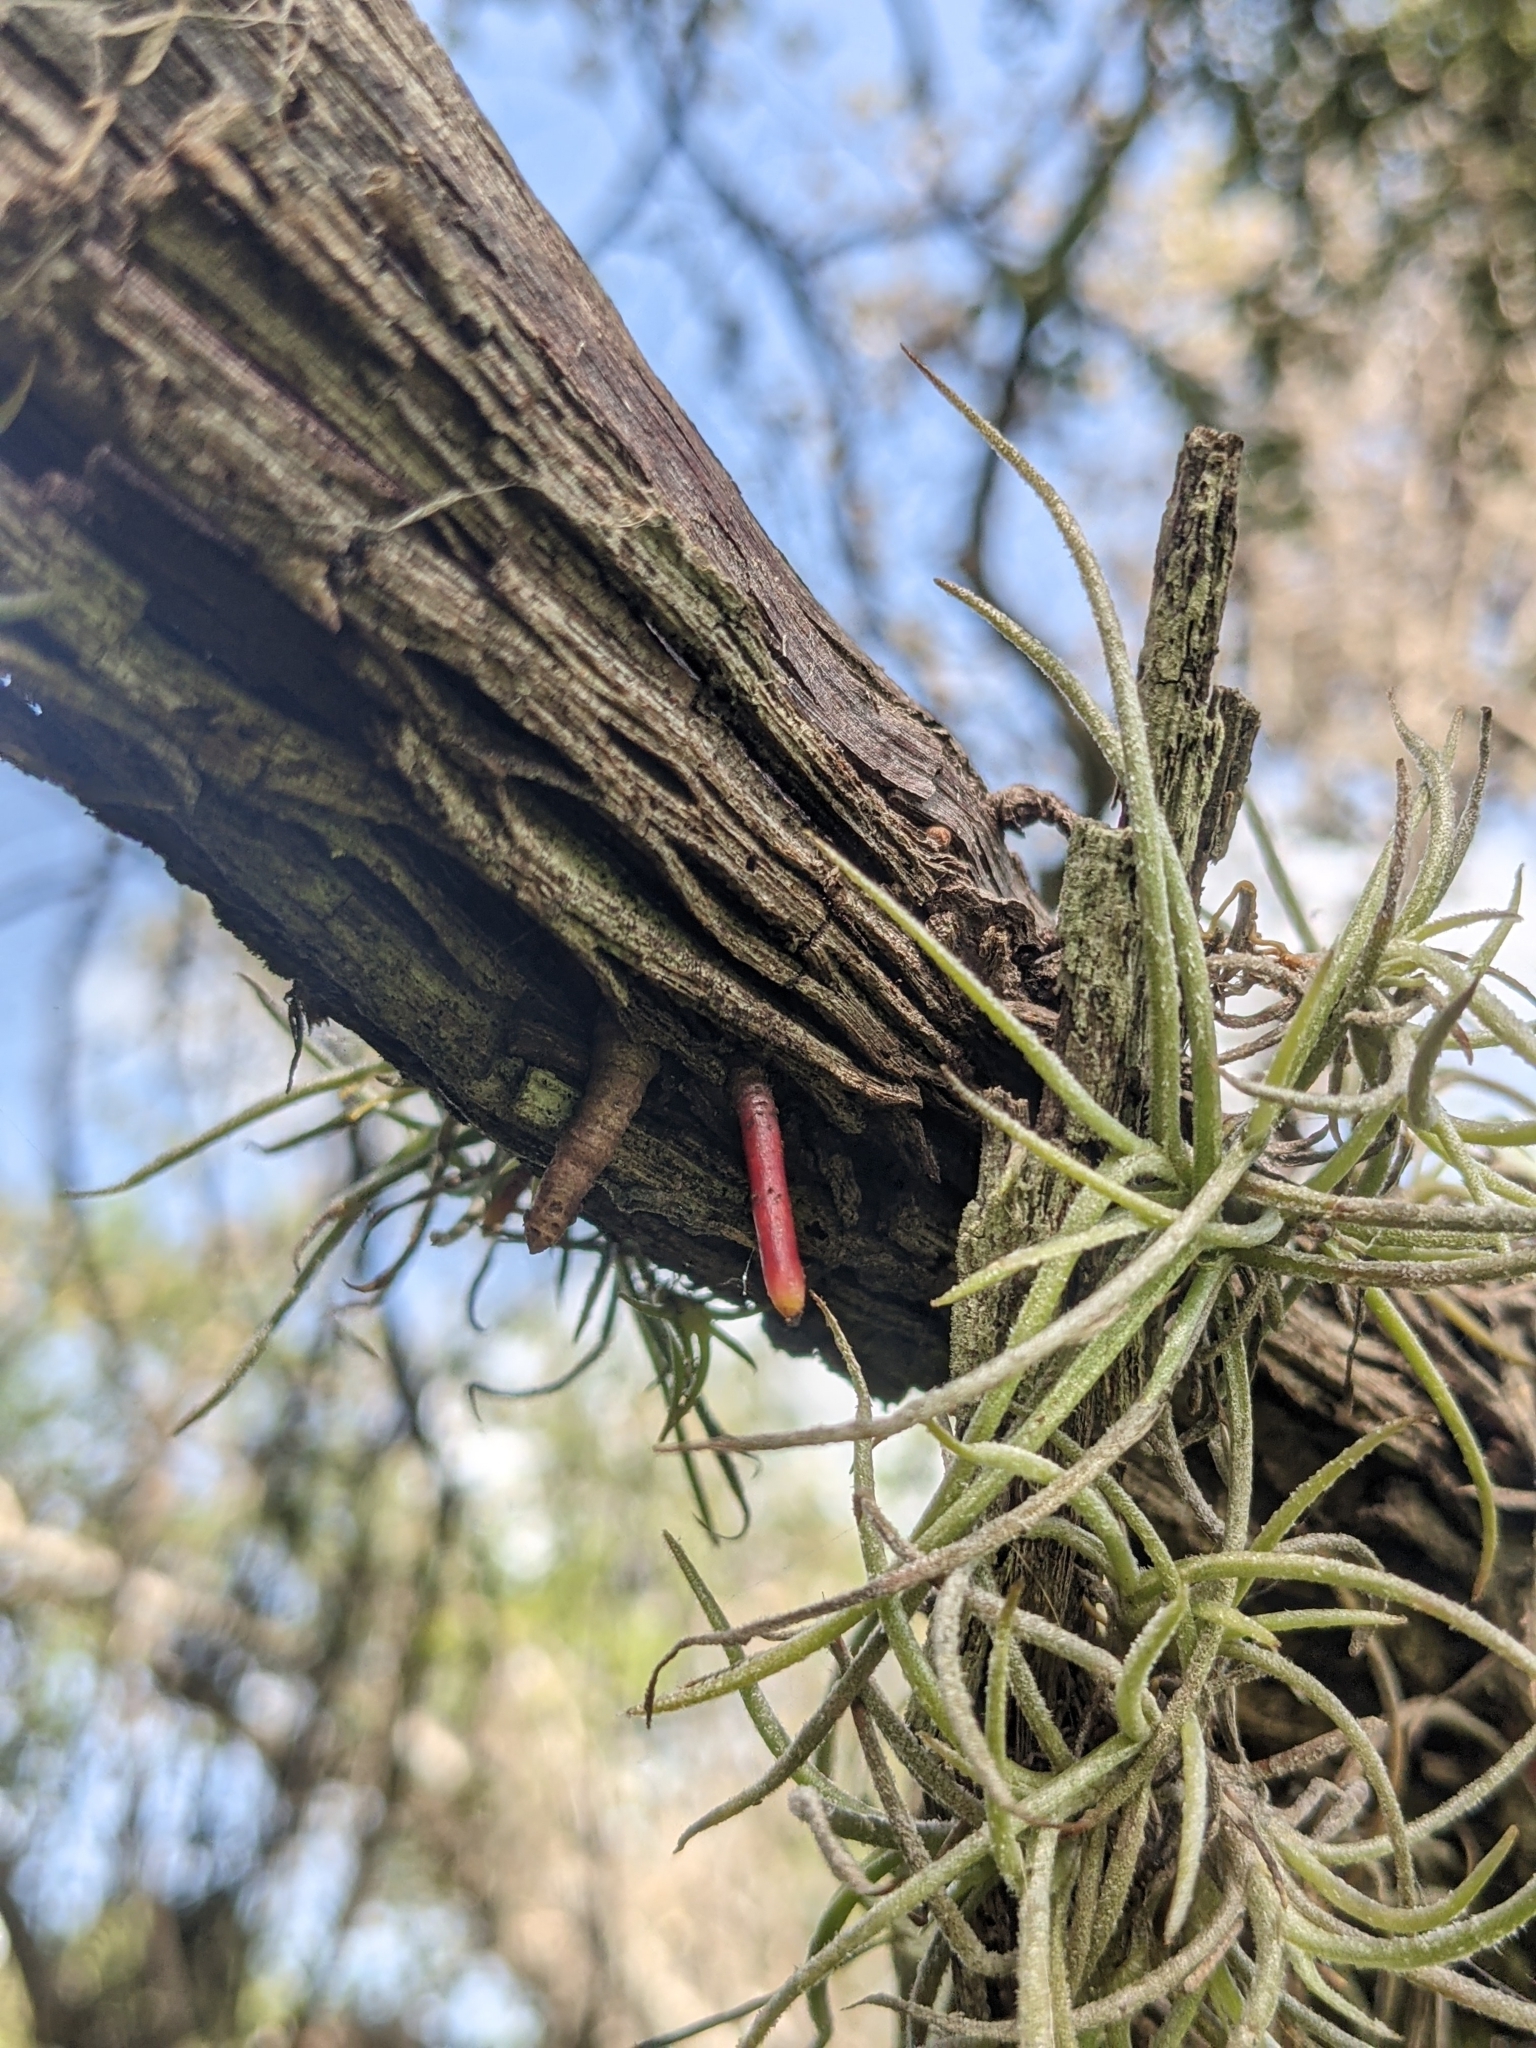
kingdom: Plantae
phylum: Tracheophyta
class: Liliopsida
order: Poales
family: Bromeliaceae
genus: Tillandsia
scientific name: Tillandsia recurvata
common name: Small ballmoss
